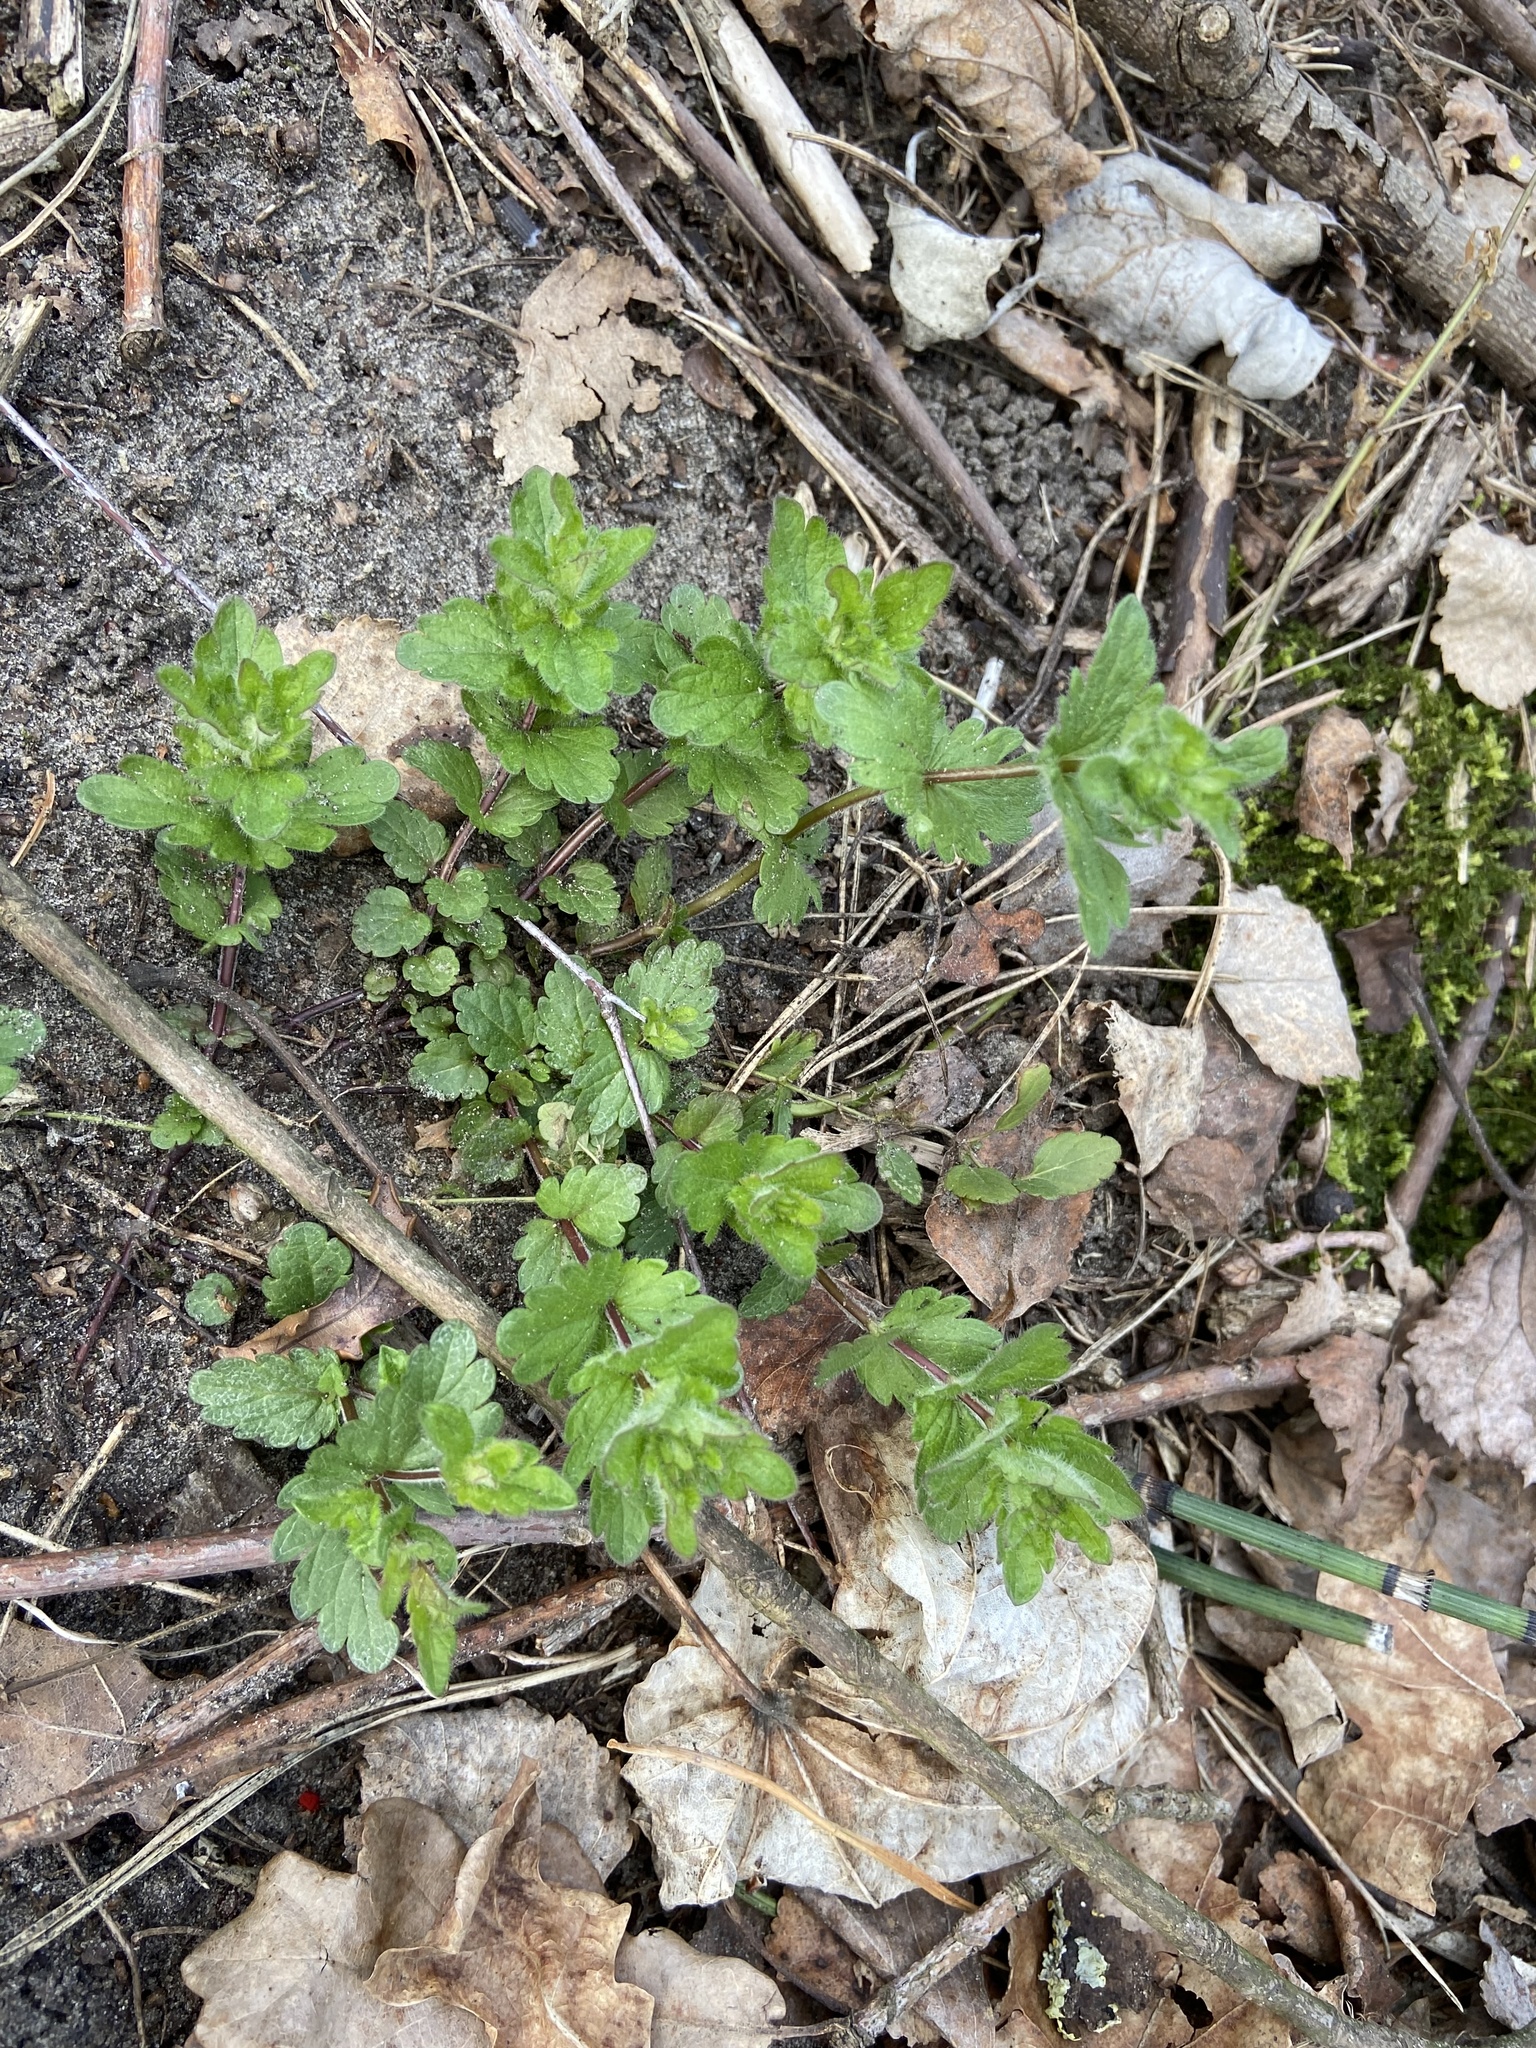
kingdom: Plantae
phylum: Tracheophyta
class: Magnoliopsida
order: Lamiales
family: Plantaginaceae
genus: Veronica
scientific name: Veronica chamaedrys
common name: Germander speedwell
